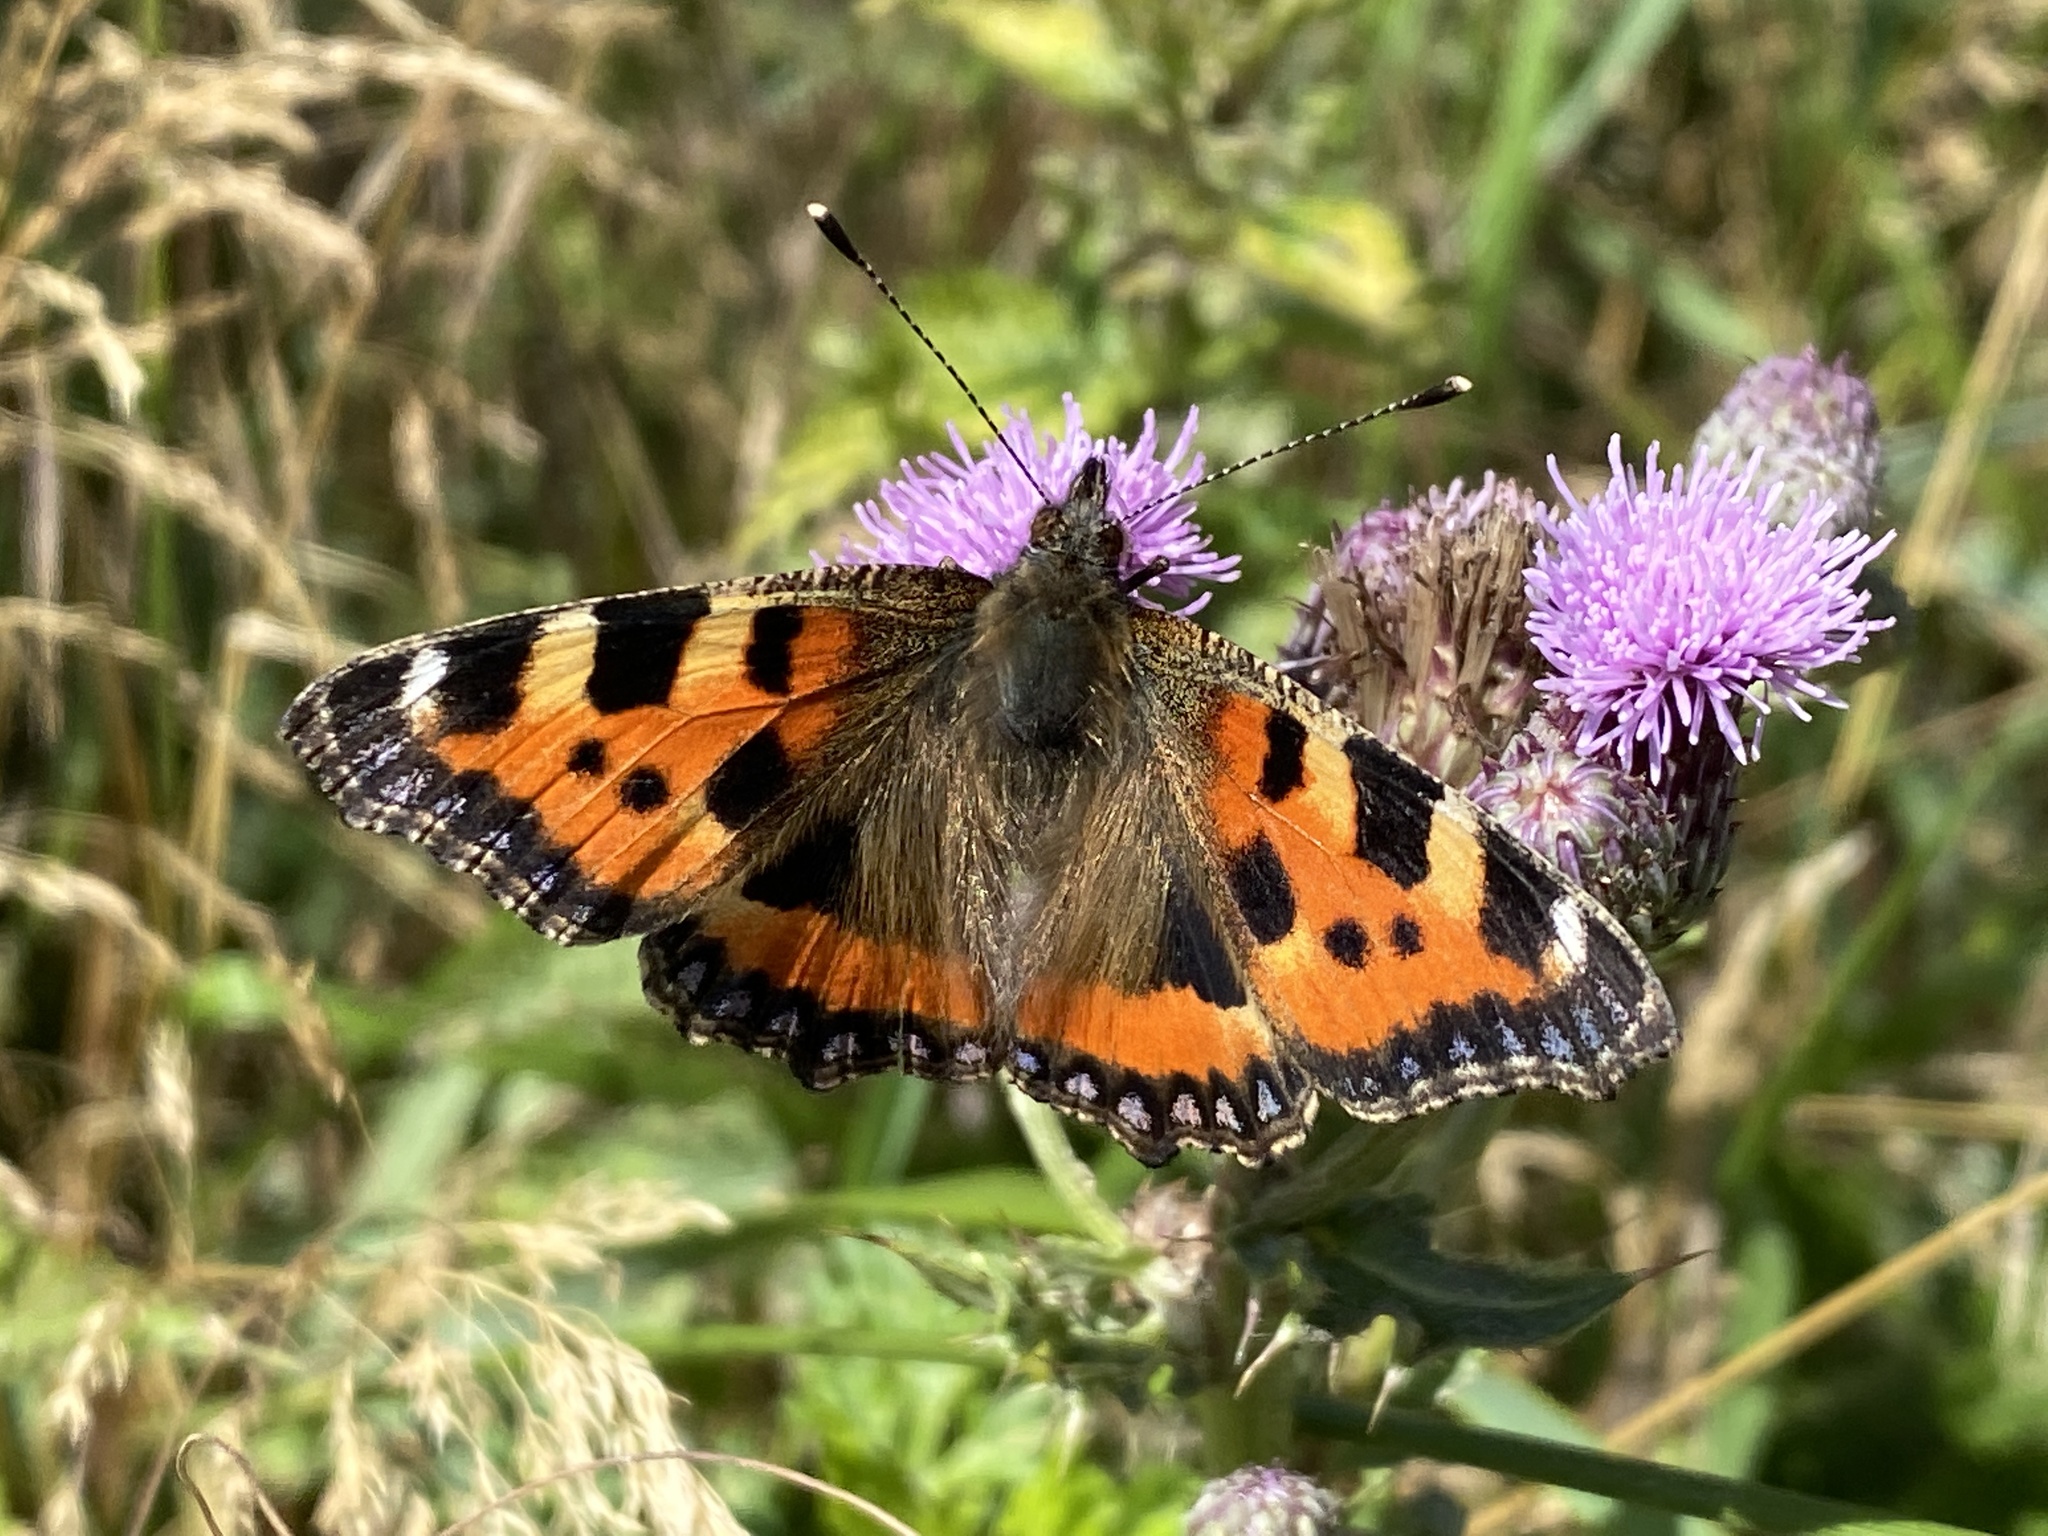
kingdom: Animalia
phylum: Arthropoda
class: Insecta
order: Lepidoptera
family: Nymphalidae
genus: Aglais
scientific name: Aglais urticae
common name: Small tortoiseshell
